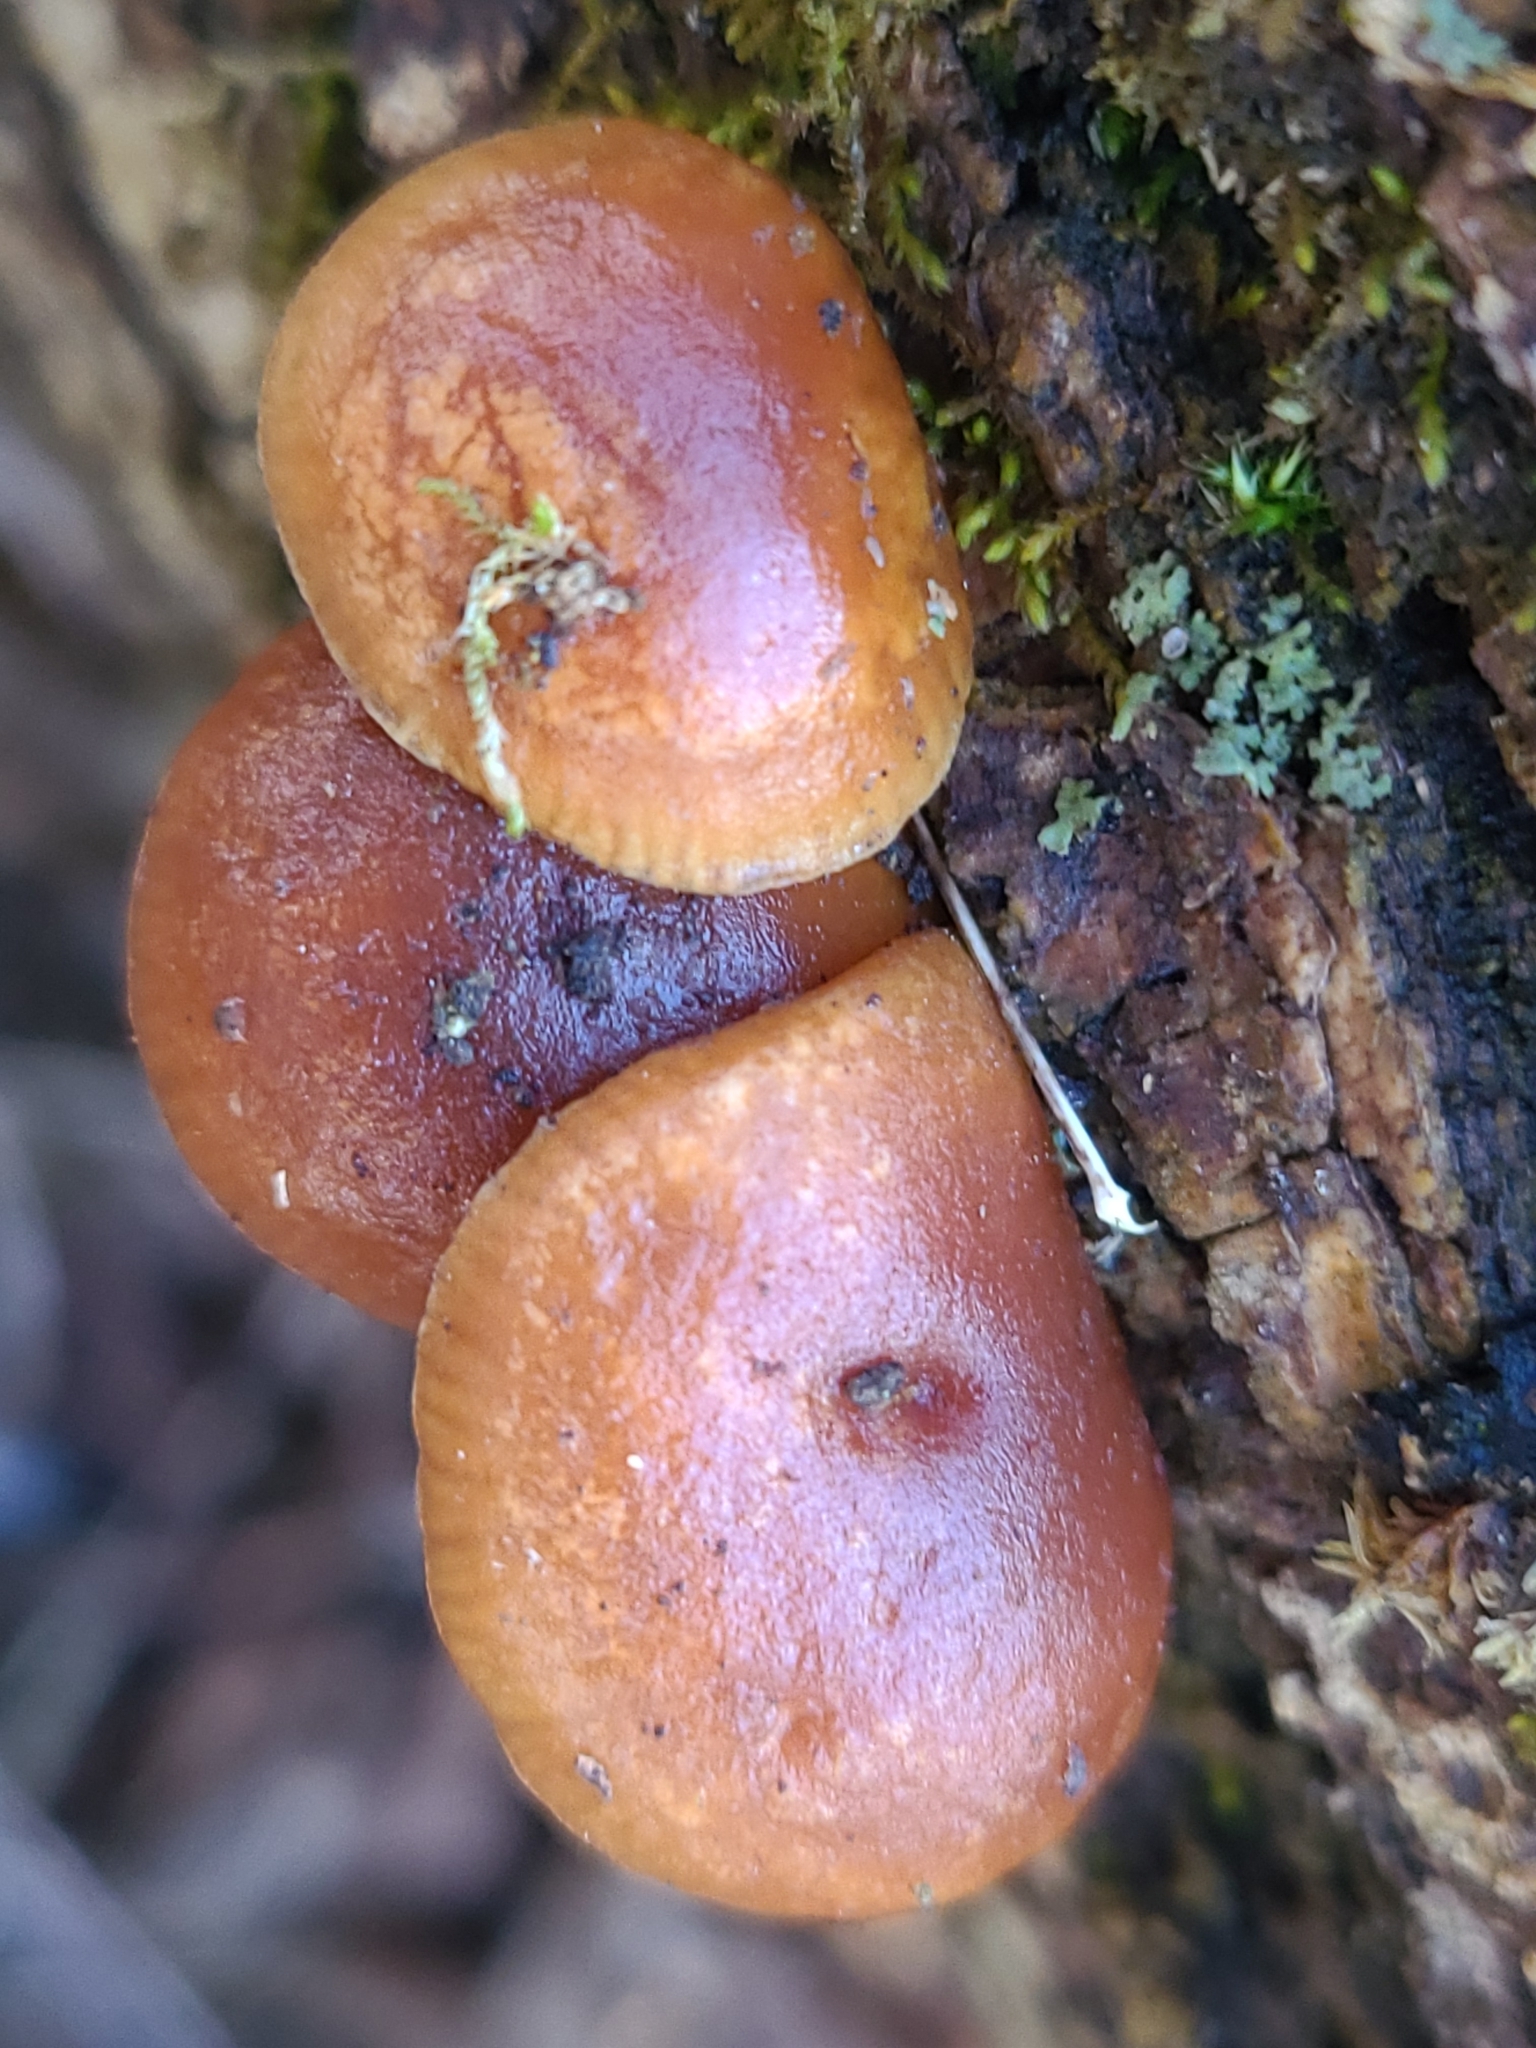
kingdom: Fungi
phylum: Basidiomycota
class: Agaricomycetes
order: Agaricales
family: Physalacriaceae
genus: Flammulina
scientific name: Flammulina velutipes
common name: Velvet shank
